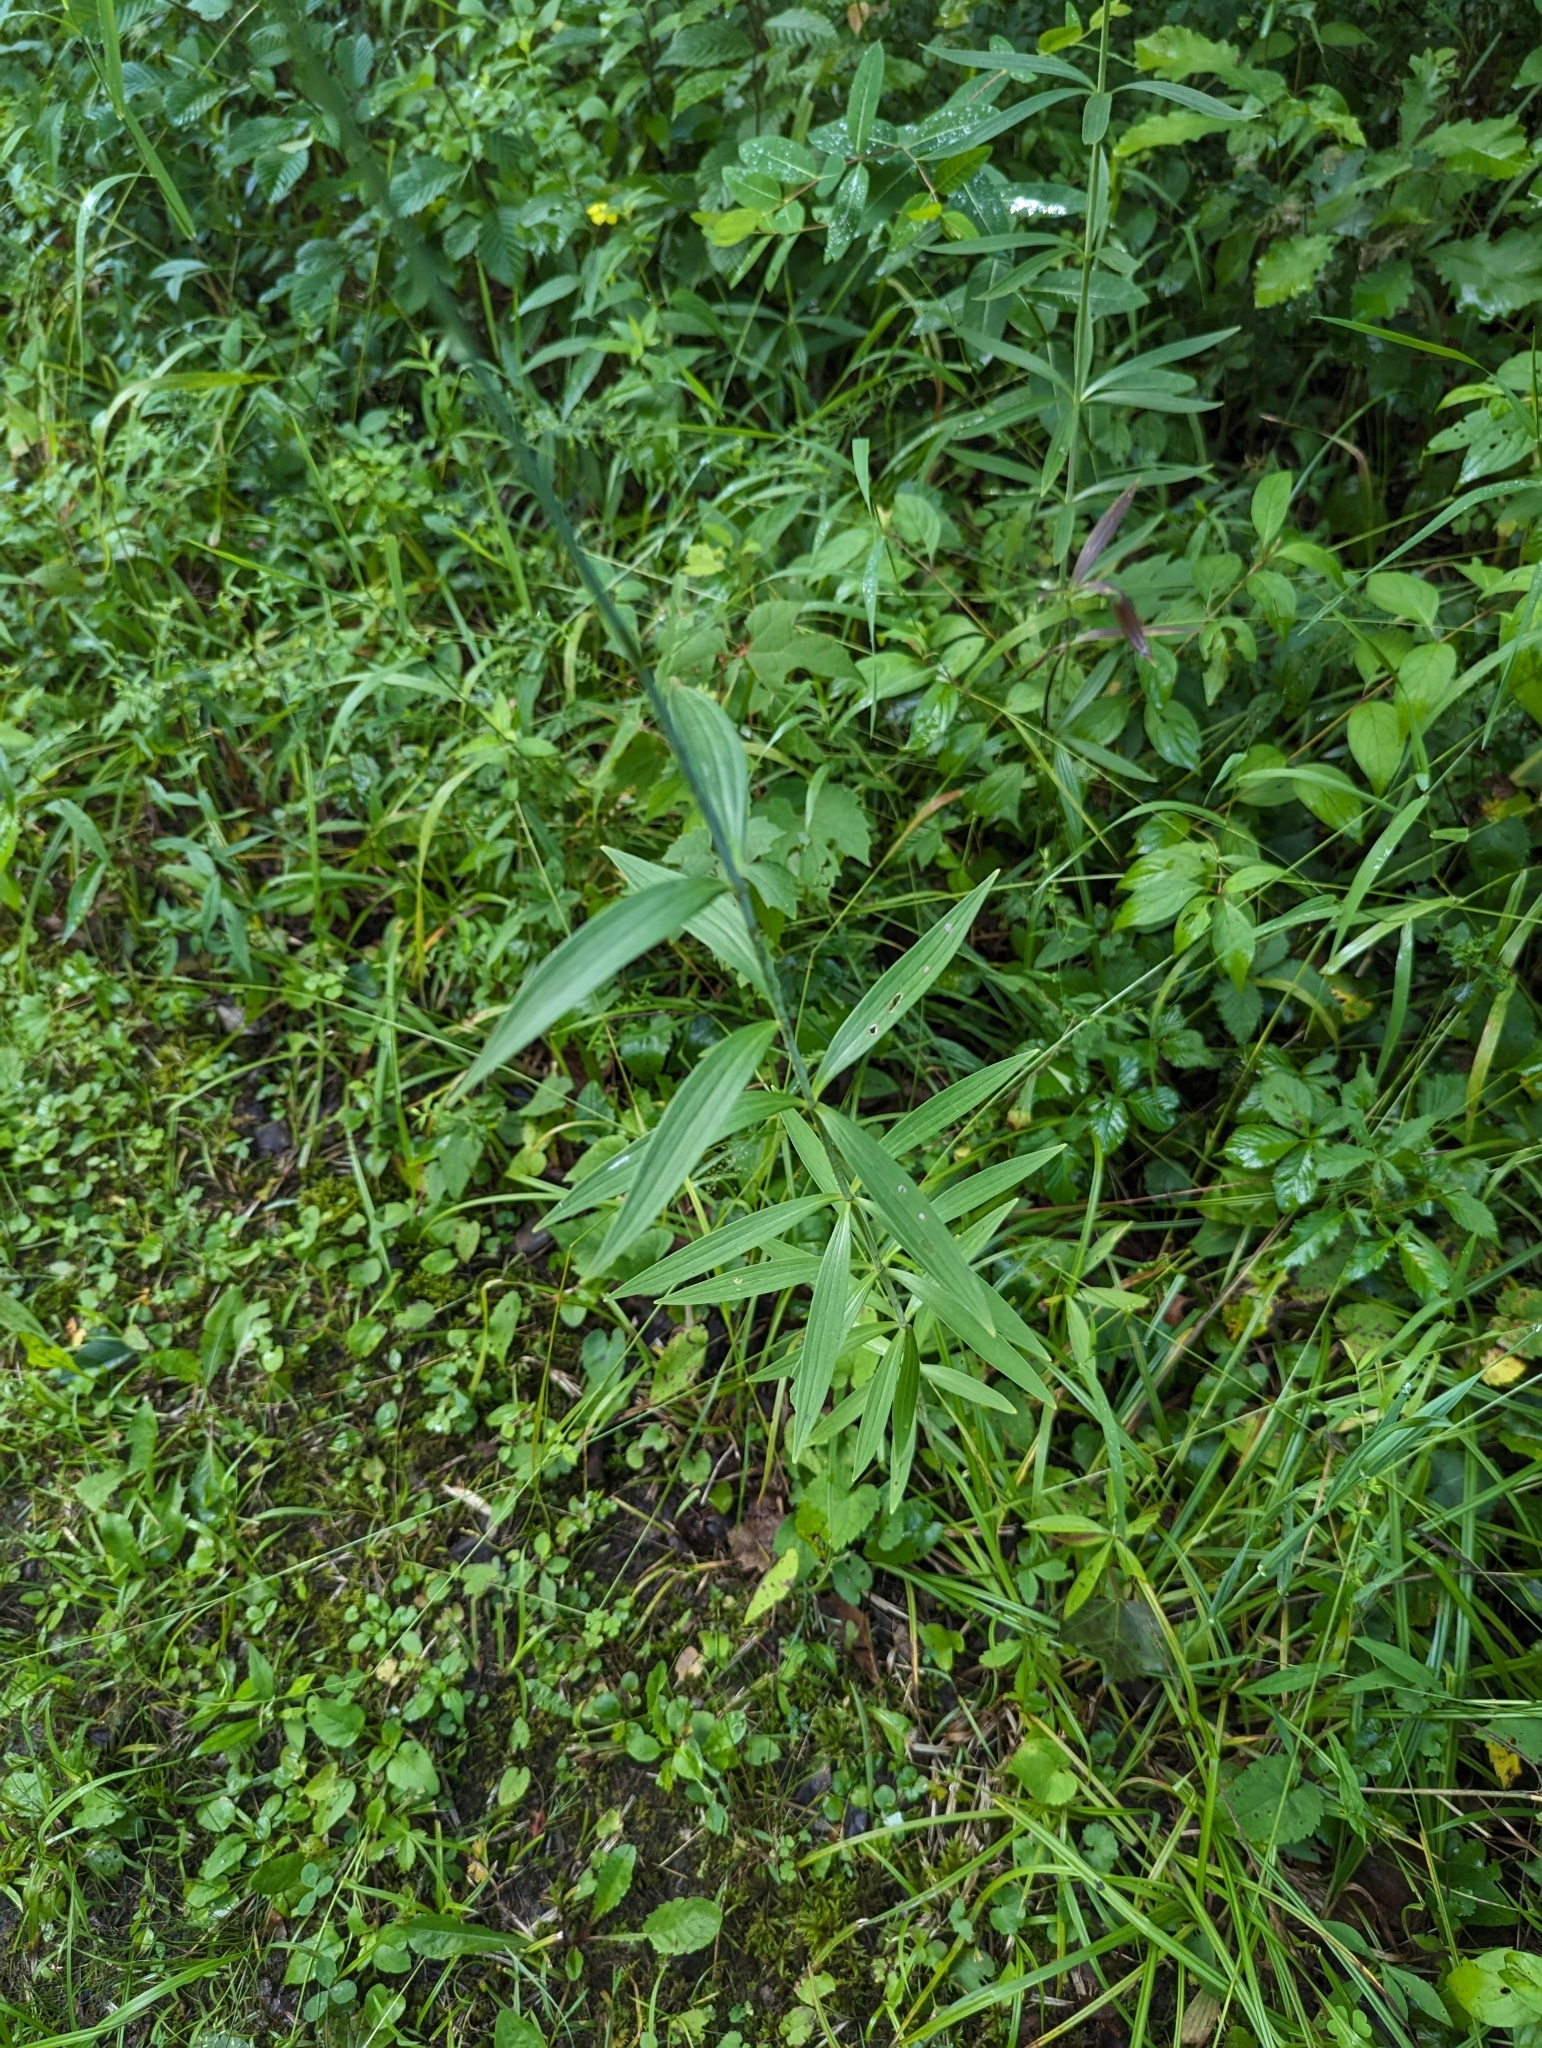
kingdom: Plantae
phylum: Tracheophyta
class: Liliopsida
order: Liliales
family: Liliaceae
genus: Lilium
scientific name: Lilium michiganense
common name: Michigan lily
